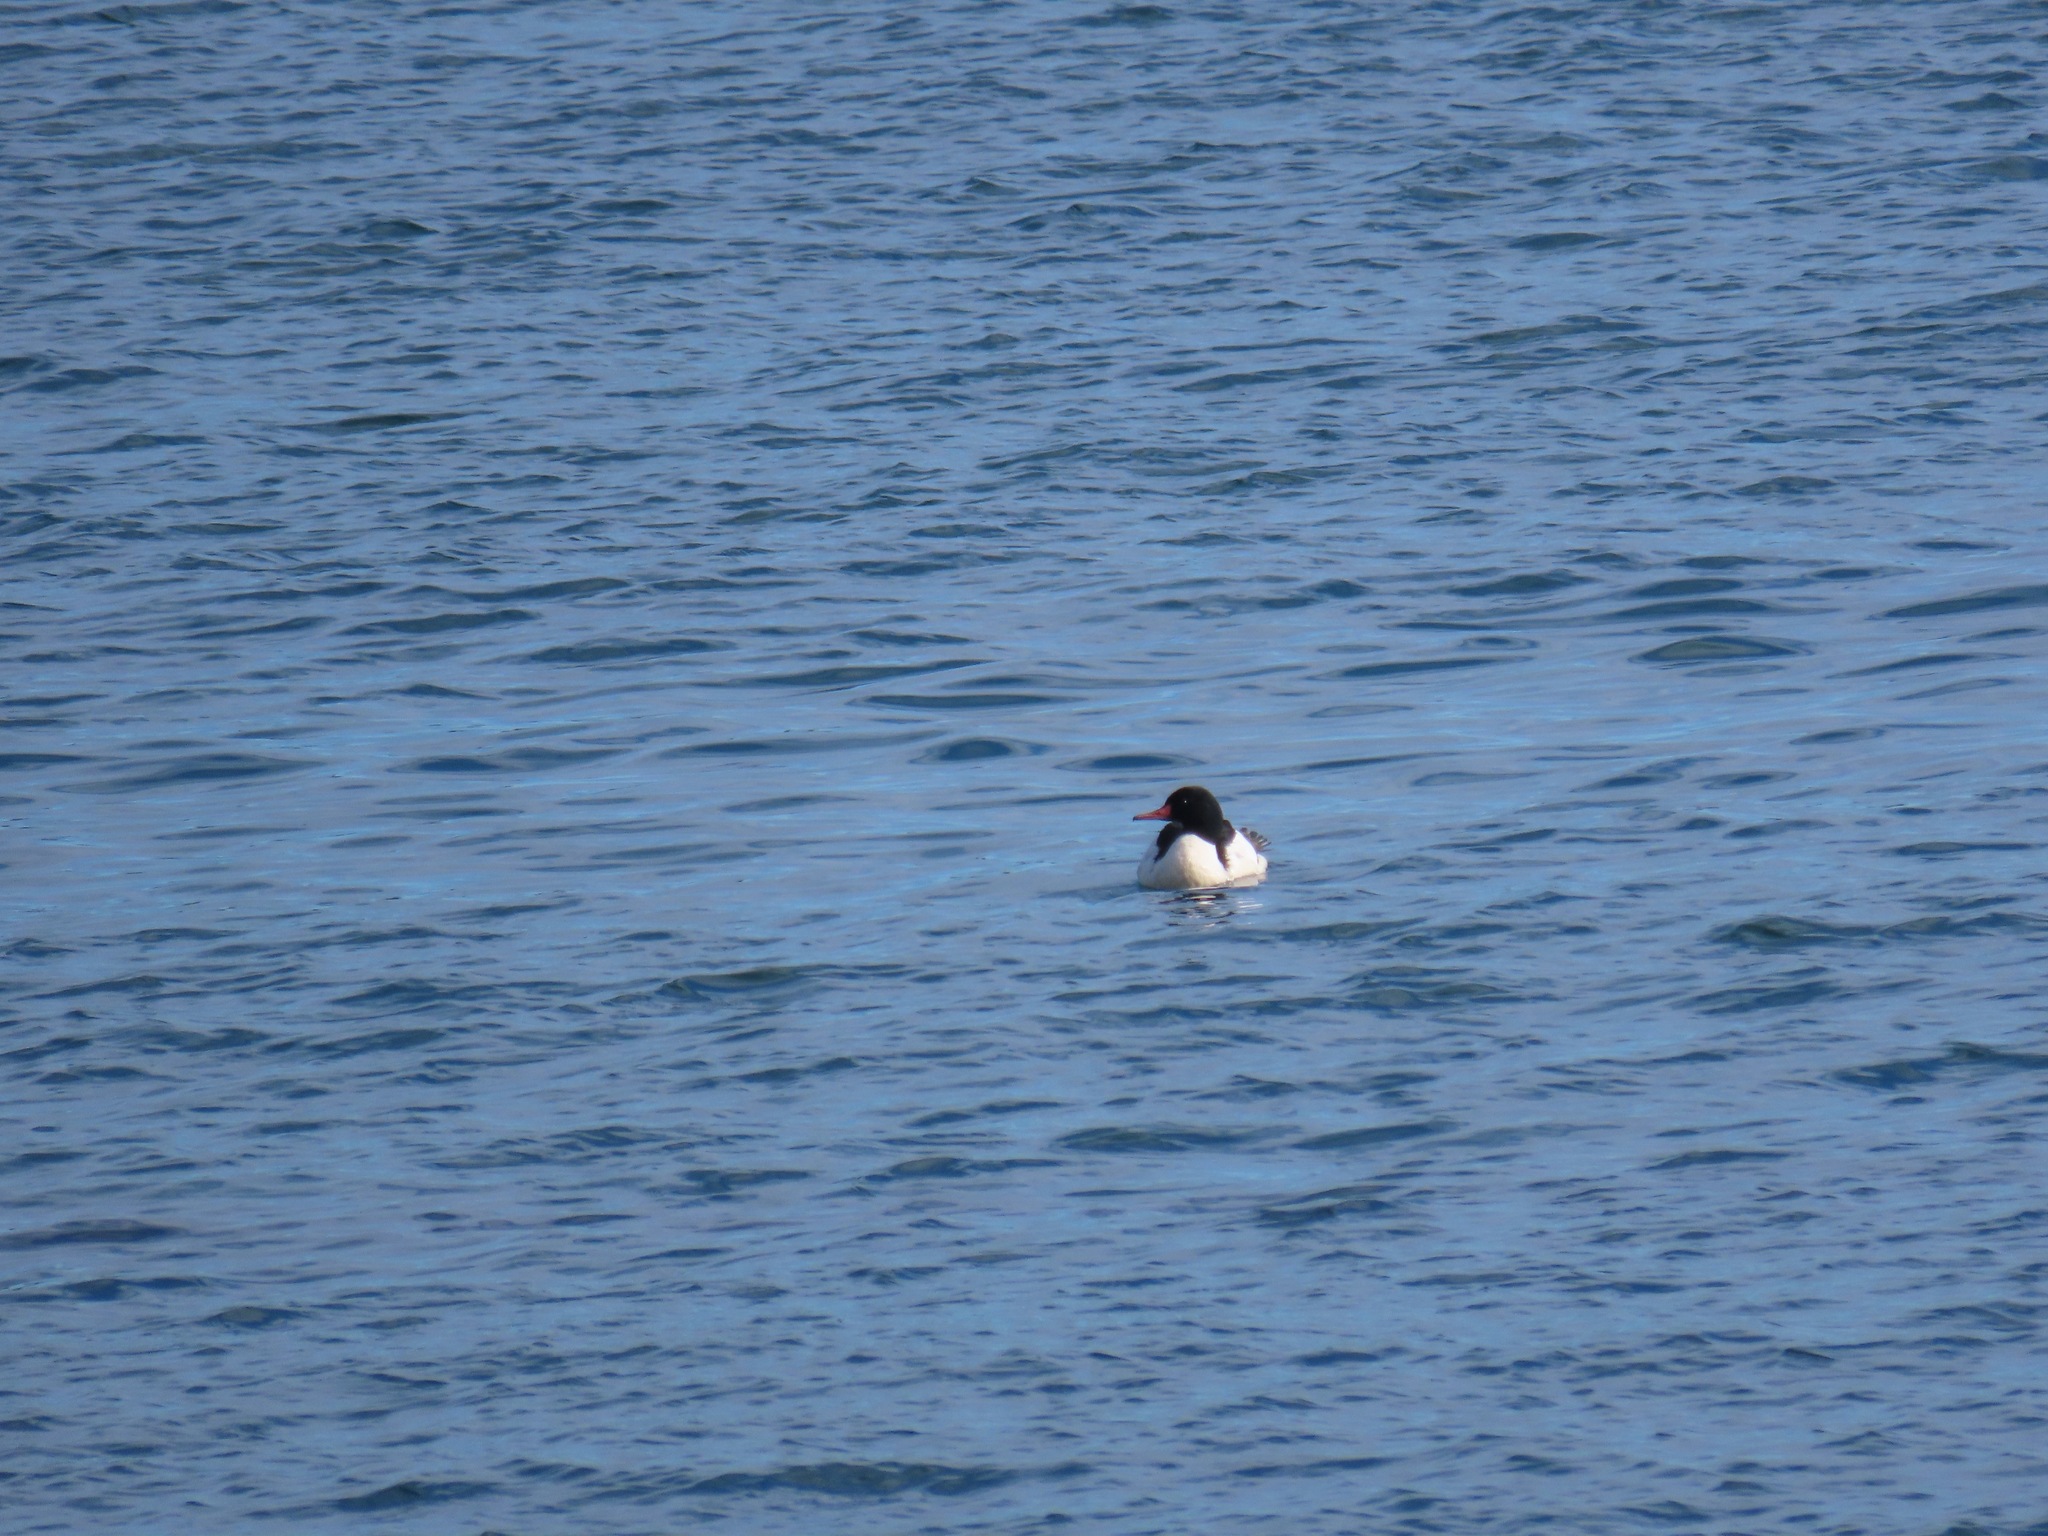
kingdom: Animalia
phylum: Chordata
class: Aves
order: Anseriformes
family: Anatidae
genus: Mergus
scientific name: Mergus merganser
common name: Common merganser
